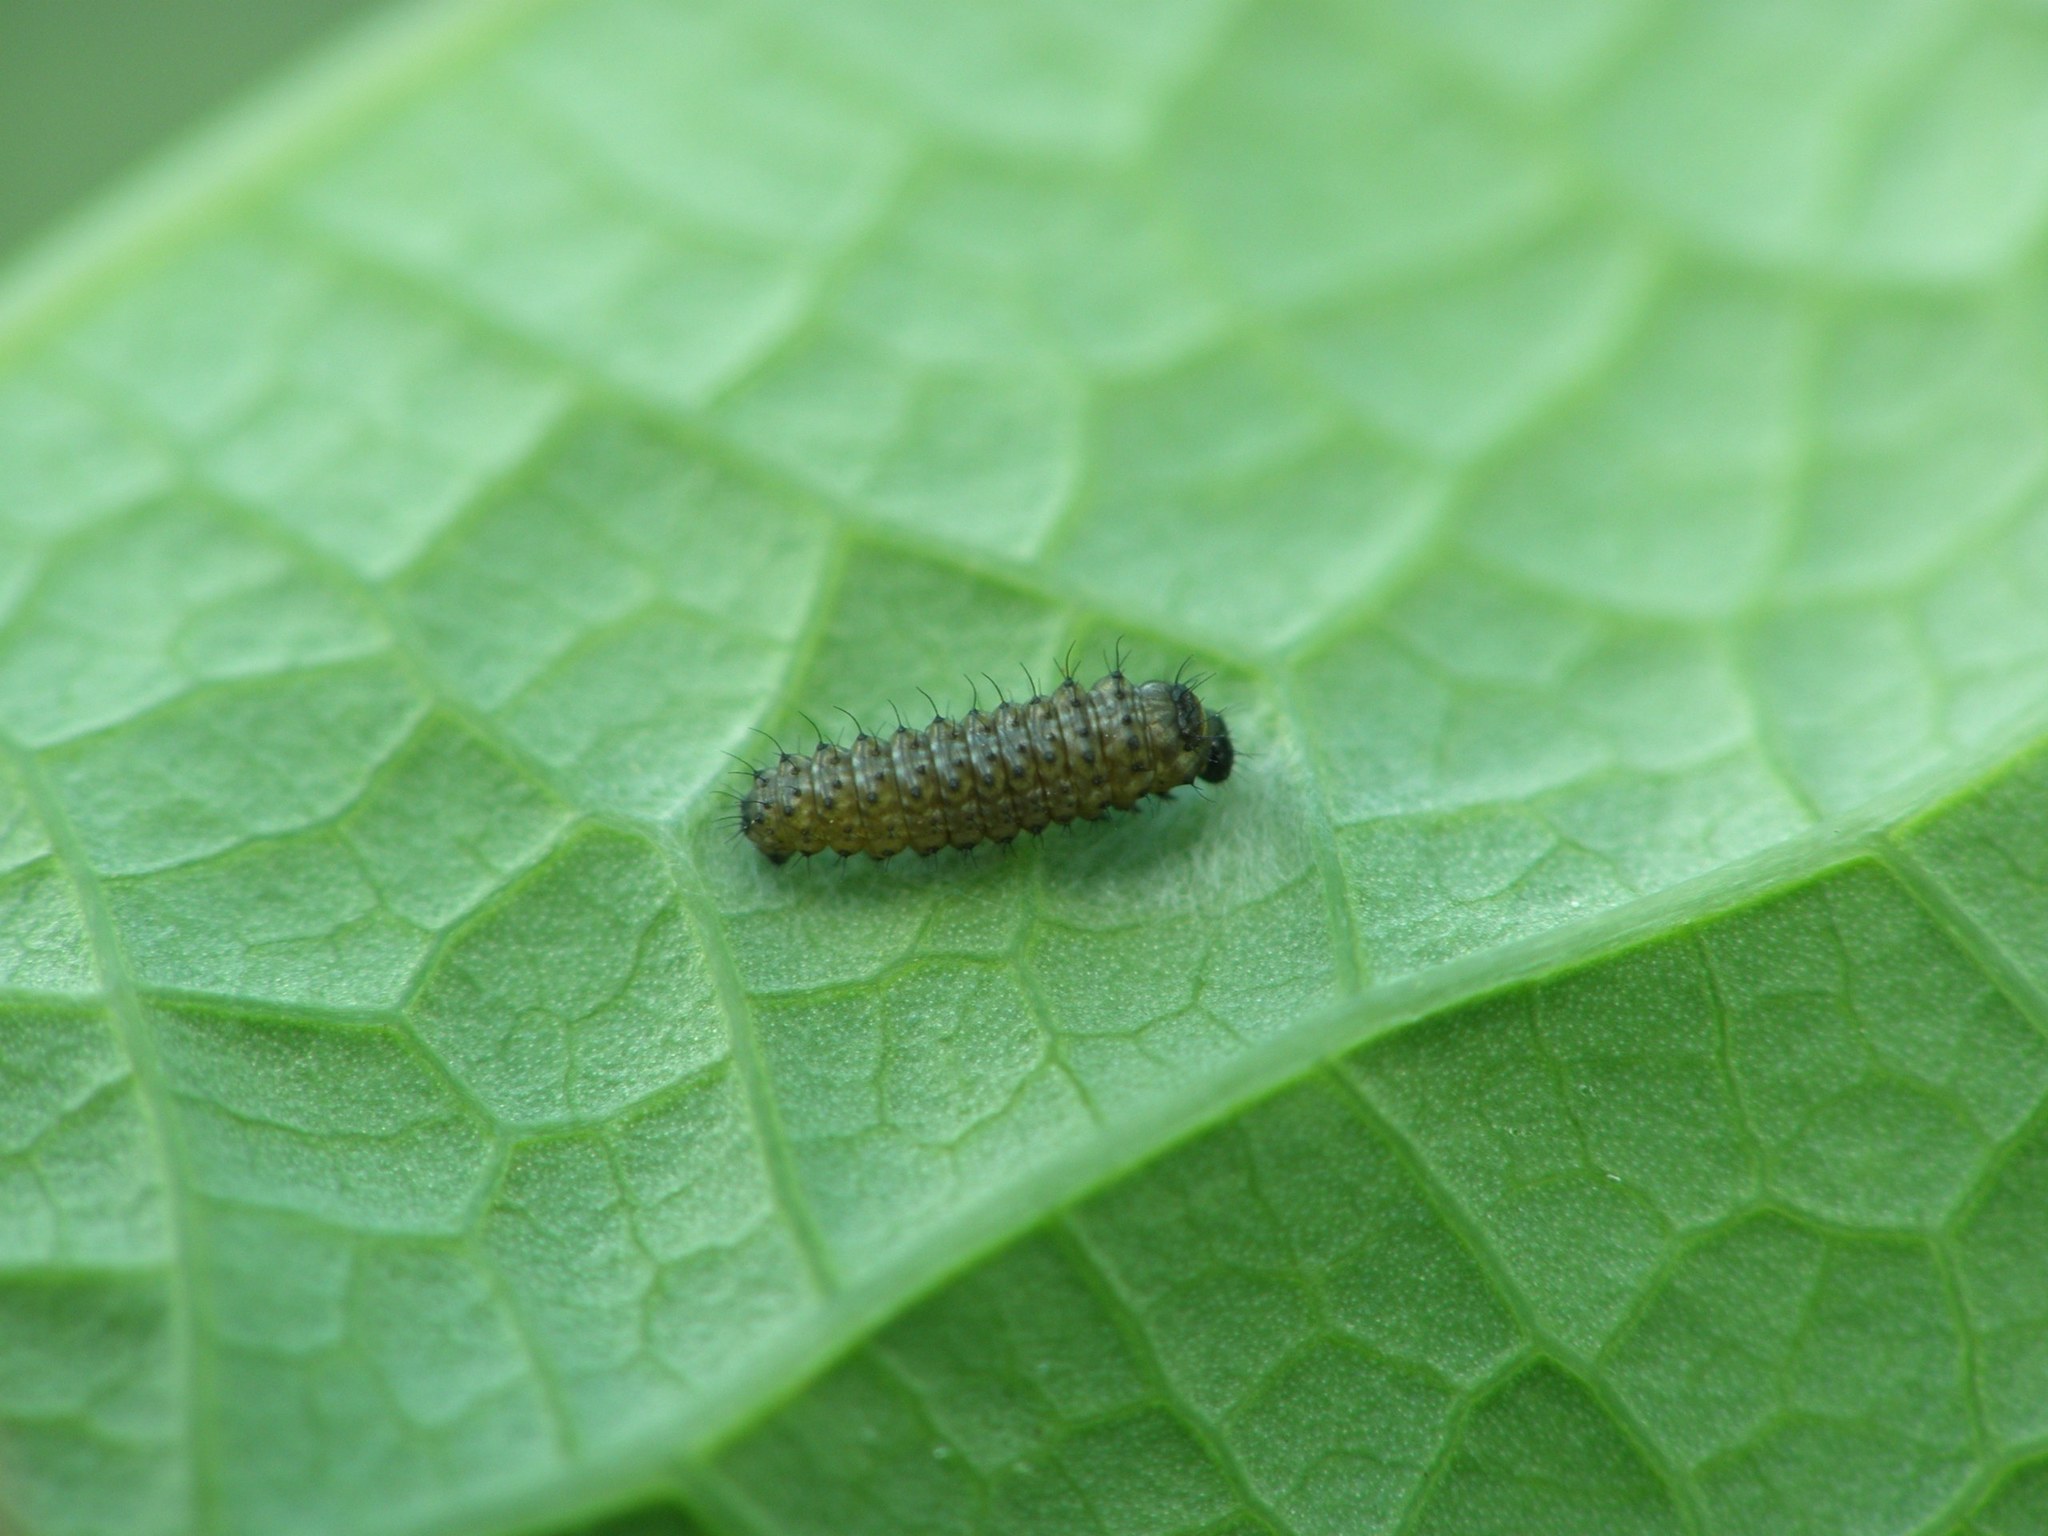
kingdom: Animalia
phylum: Arthropoda
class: Insecta
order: Lepidoptera
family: Papilionidae
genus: Zerynthia
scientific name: Zerynthia polyxena
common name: Southern festoon
